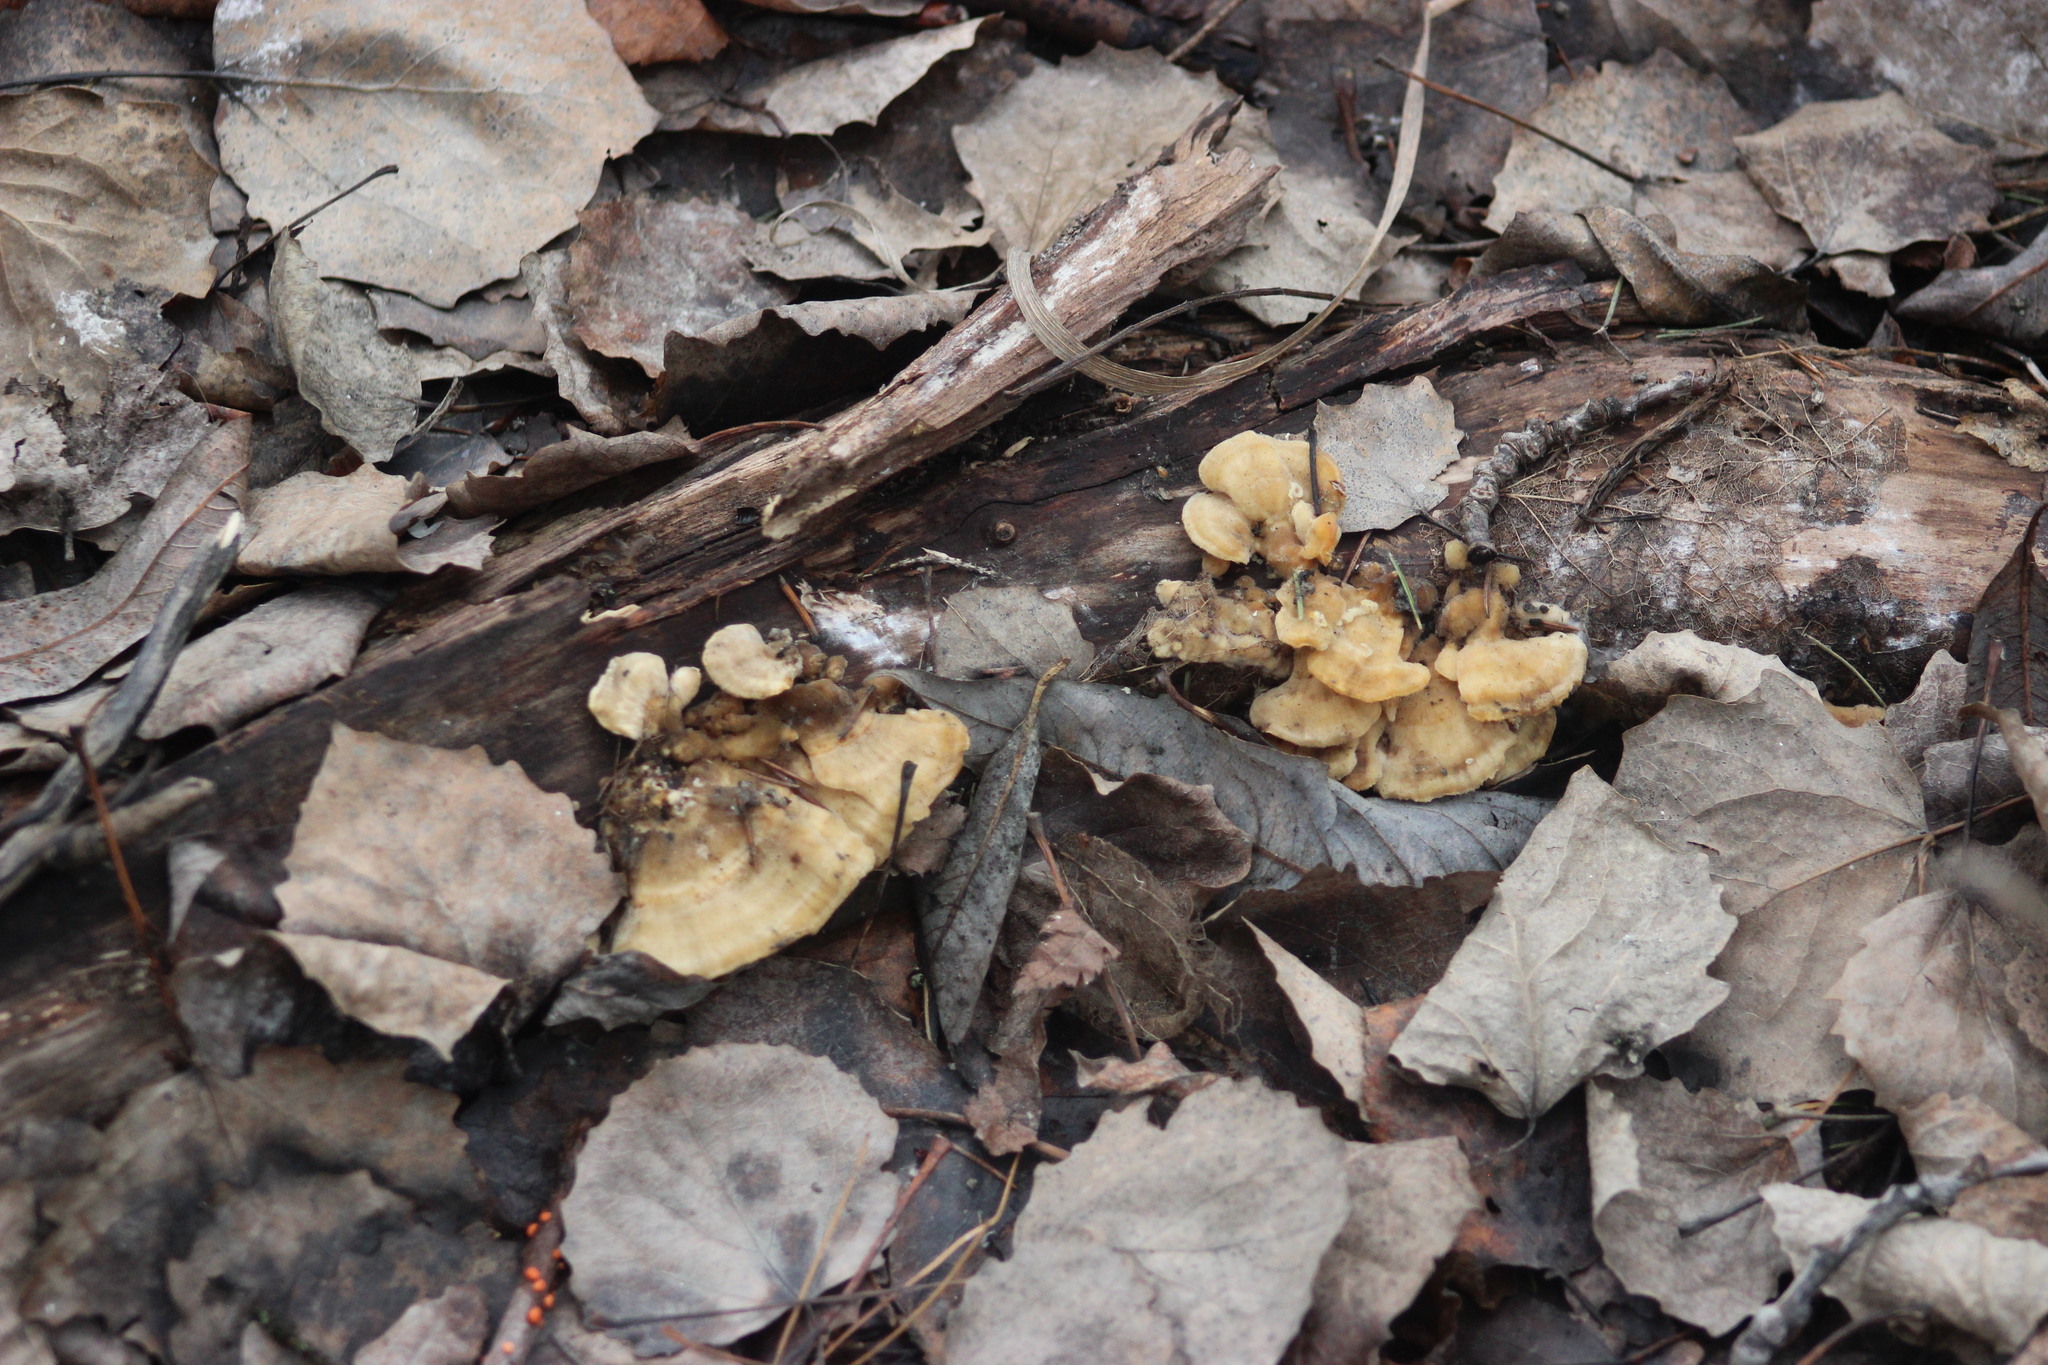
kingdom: Fungi
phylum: Basidiomycota
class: Agaricomycetes
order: Polyporales
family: Polyporaceae
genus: Trametes
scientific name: Trametes versicolor
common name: Turkeytail
